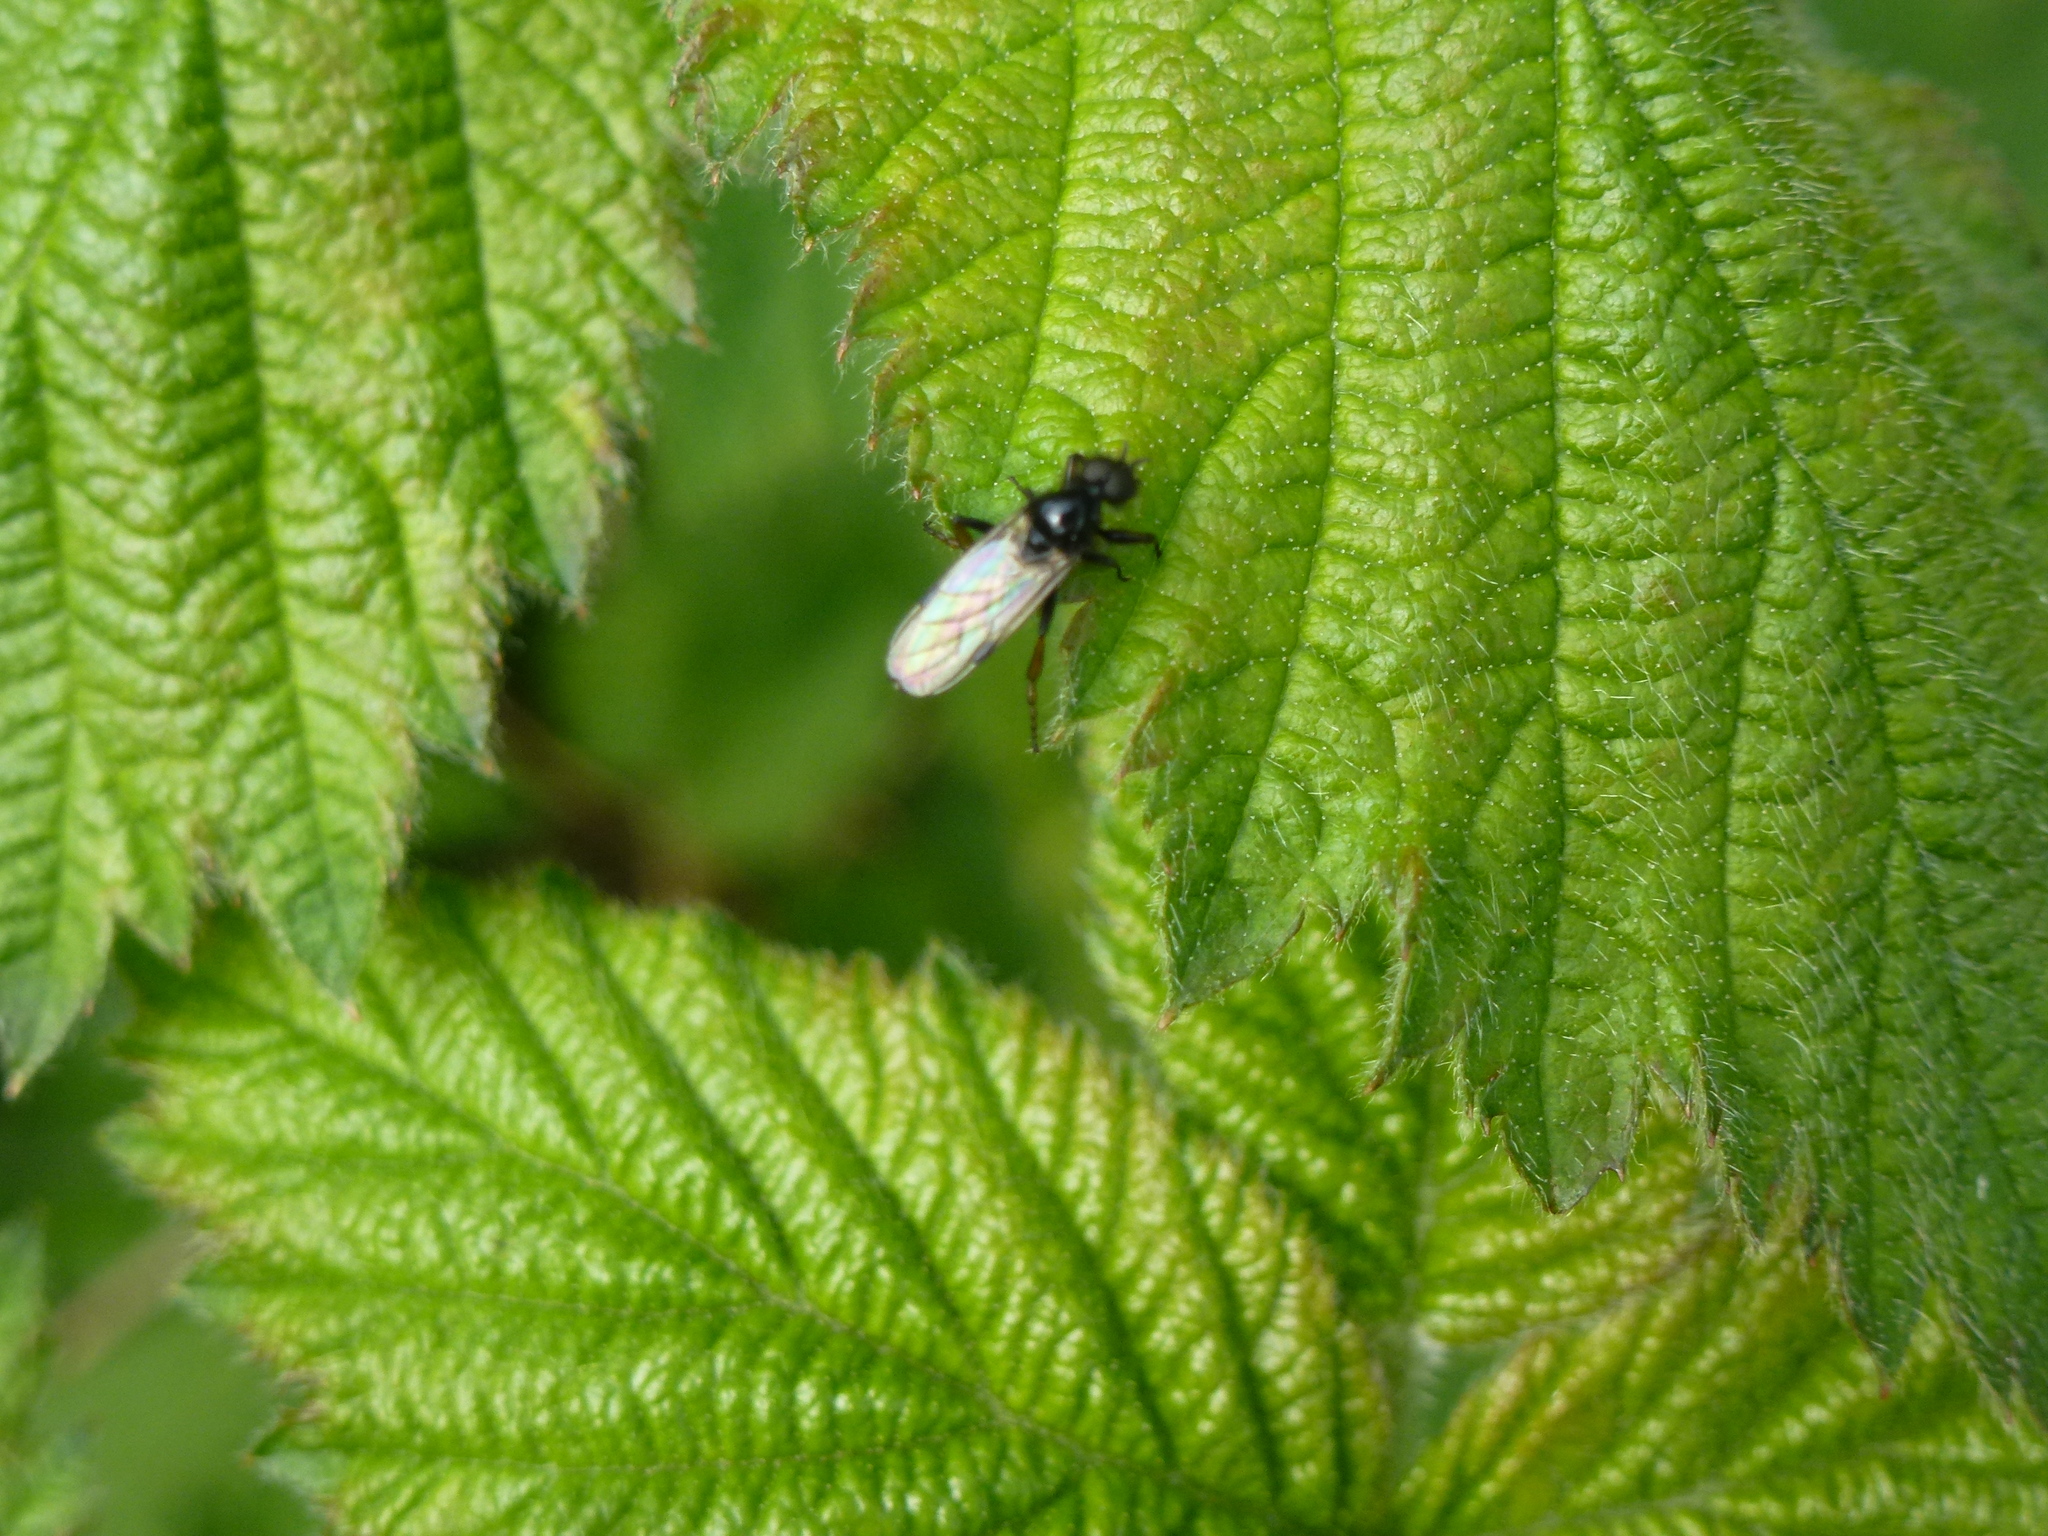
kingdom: Animalia
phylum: Arthropoda
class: Insecta
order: Diptera
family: Bibionidae
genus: Bibio
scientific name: Bibio johannis
